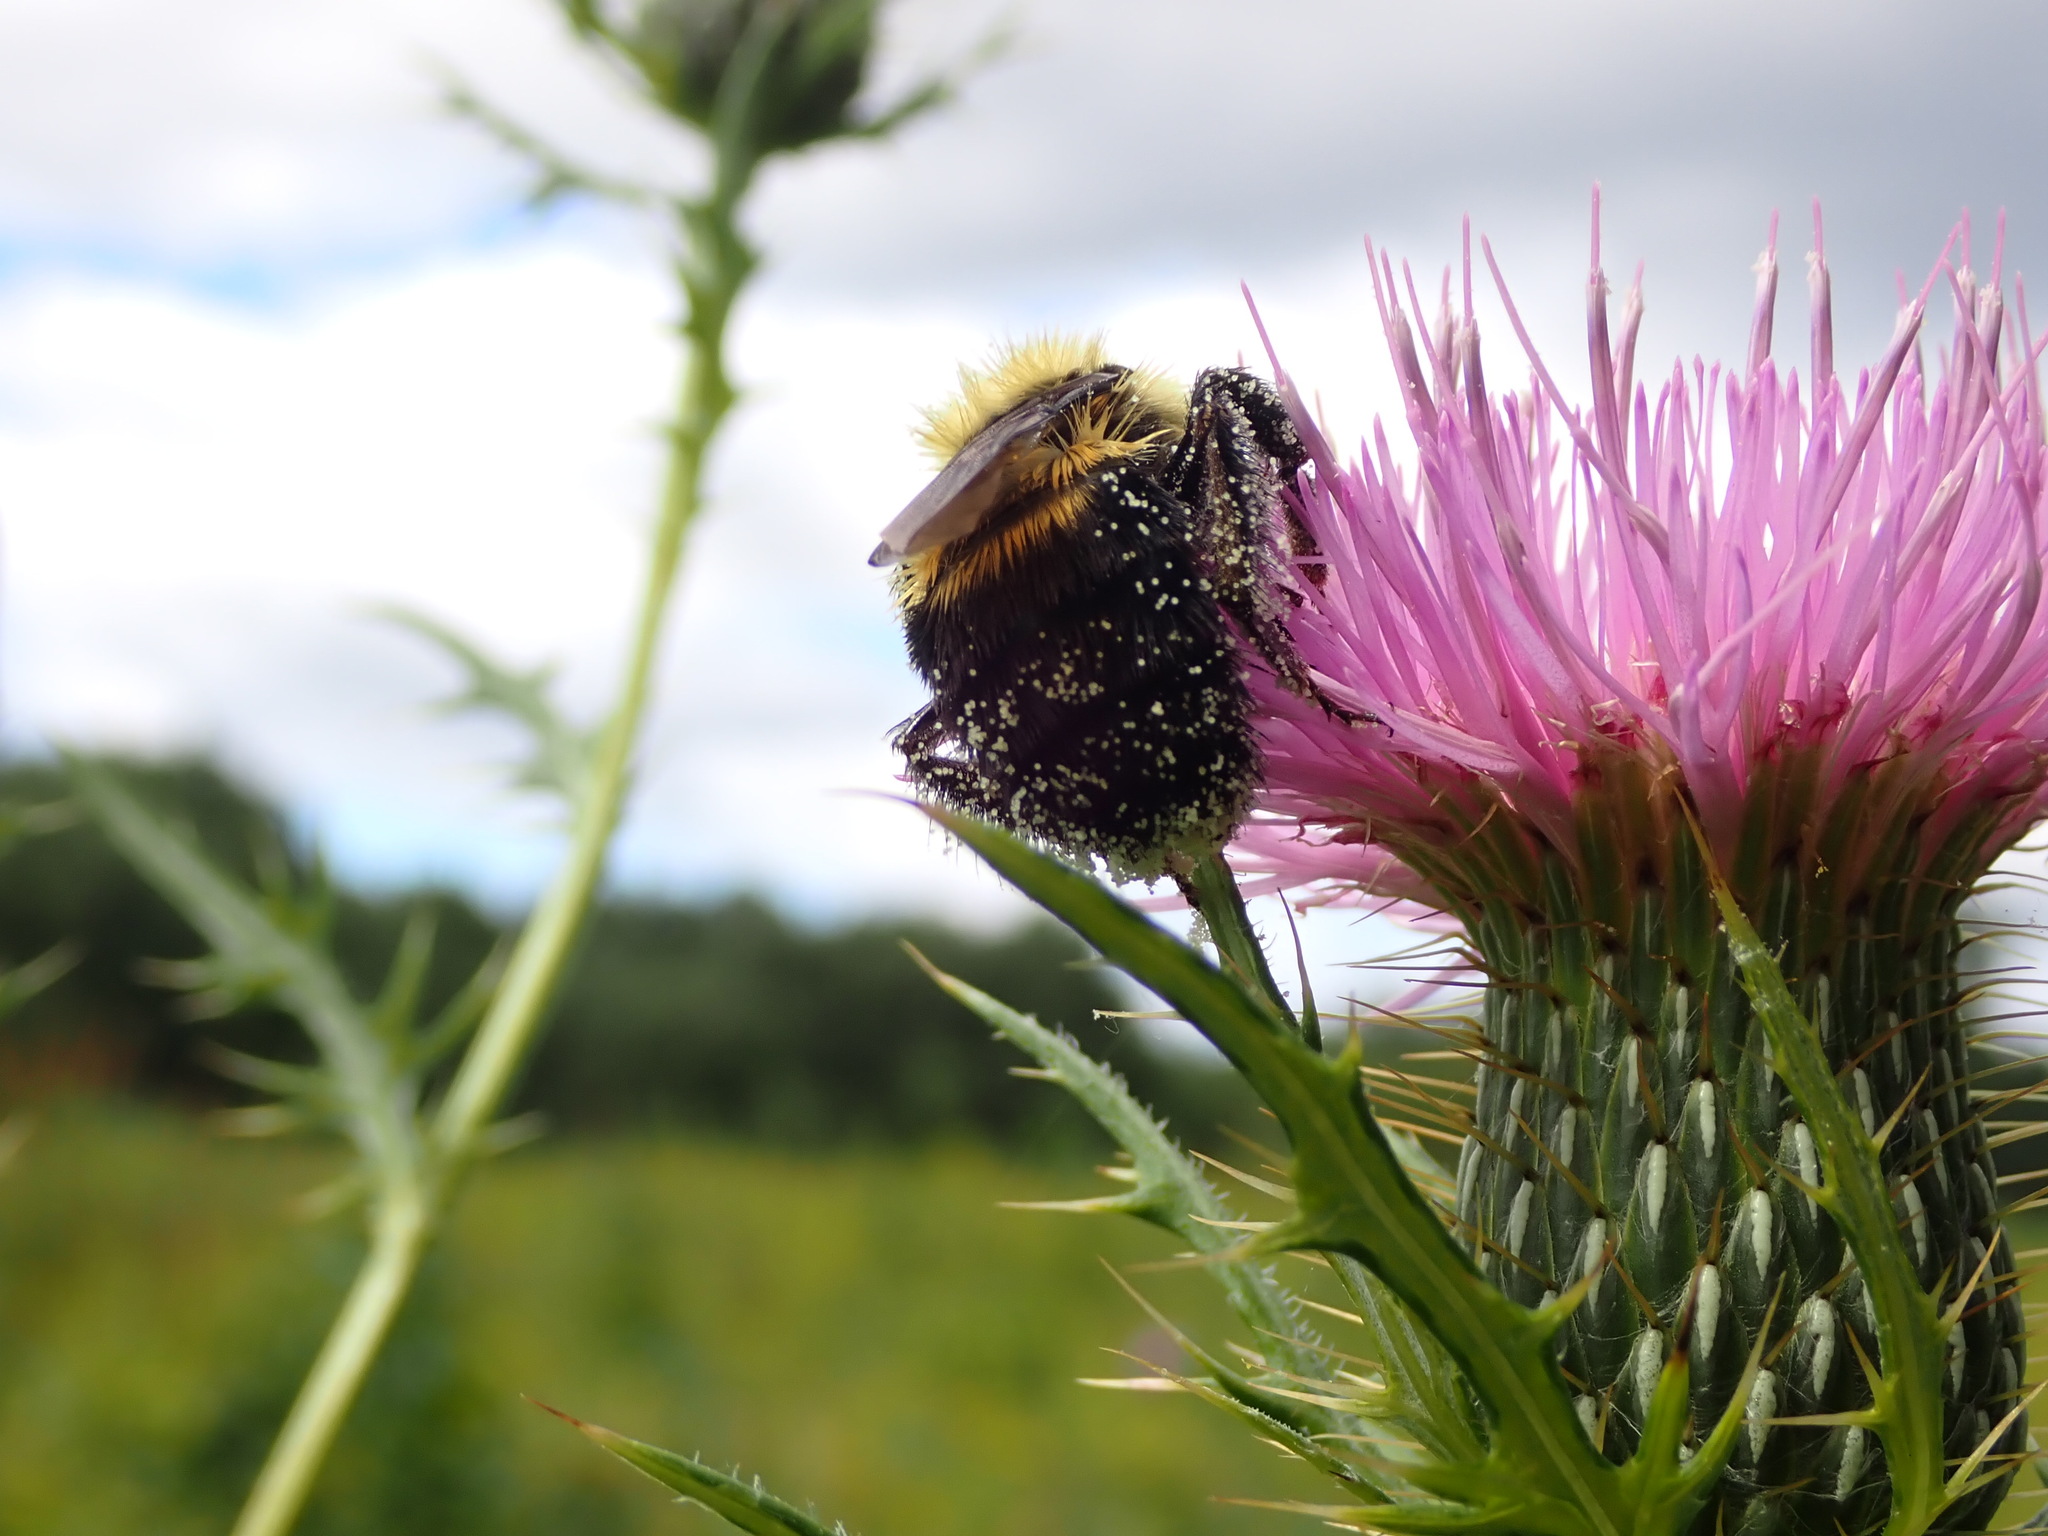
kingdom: Animalia
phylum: Arthropoda
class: Insecta
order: Hymenoptera
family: Apidae
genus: Bombus
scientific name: Bombus griseocollis
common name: Brown-belted bumble bee
